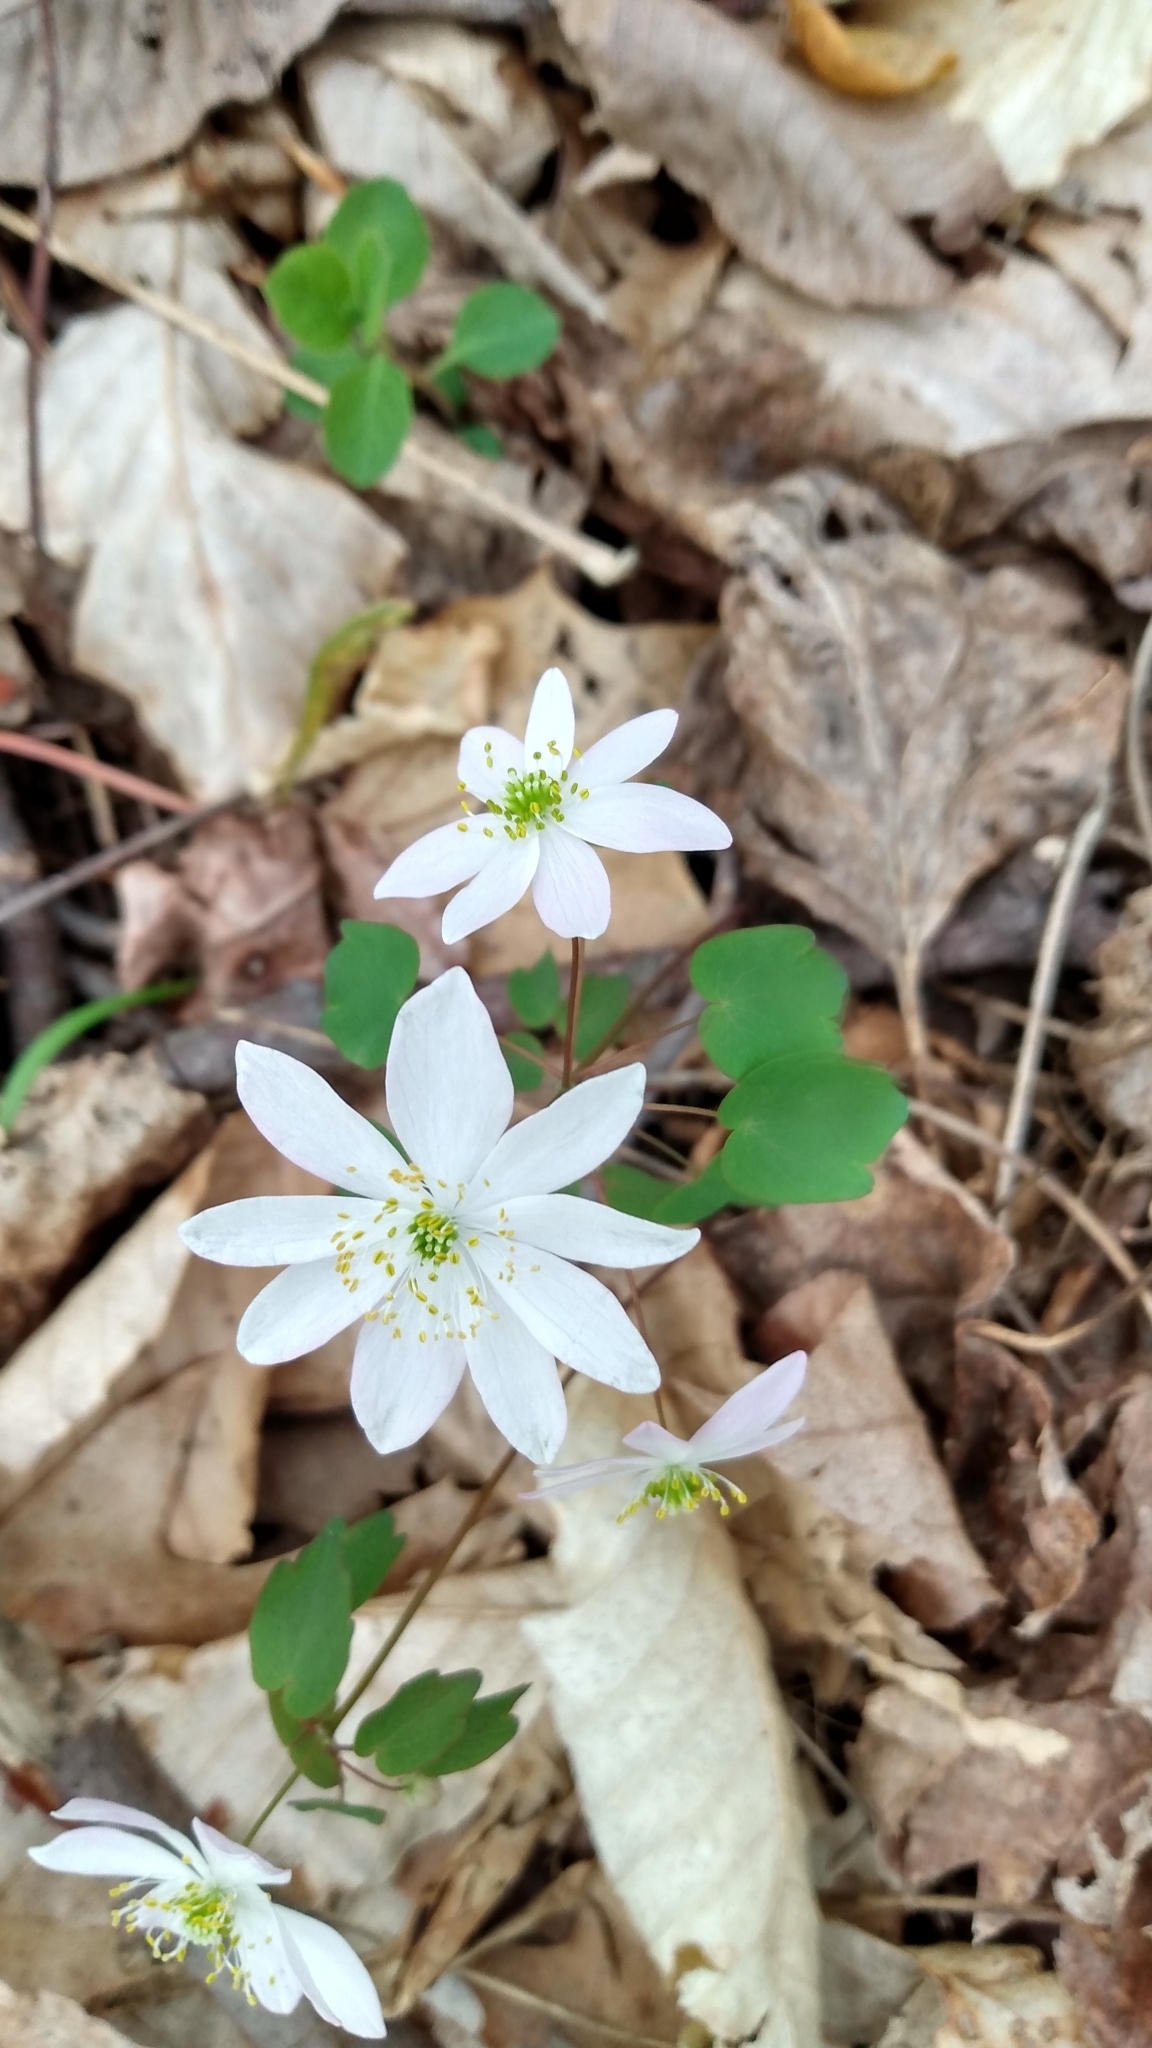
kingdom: Plantae
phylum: Tracheophyta
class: Magnoliopsida
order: Ranunculales
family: Ranunculaceae
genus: Thalictrum
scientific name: Thalictrum thalictroides
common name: Rue-anemone
